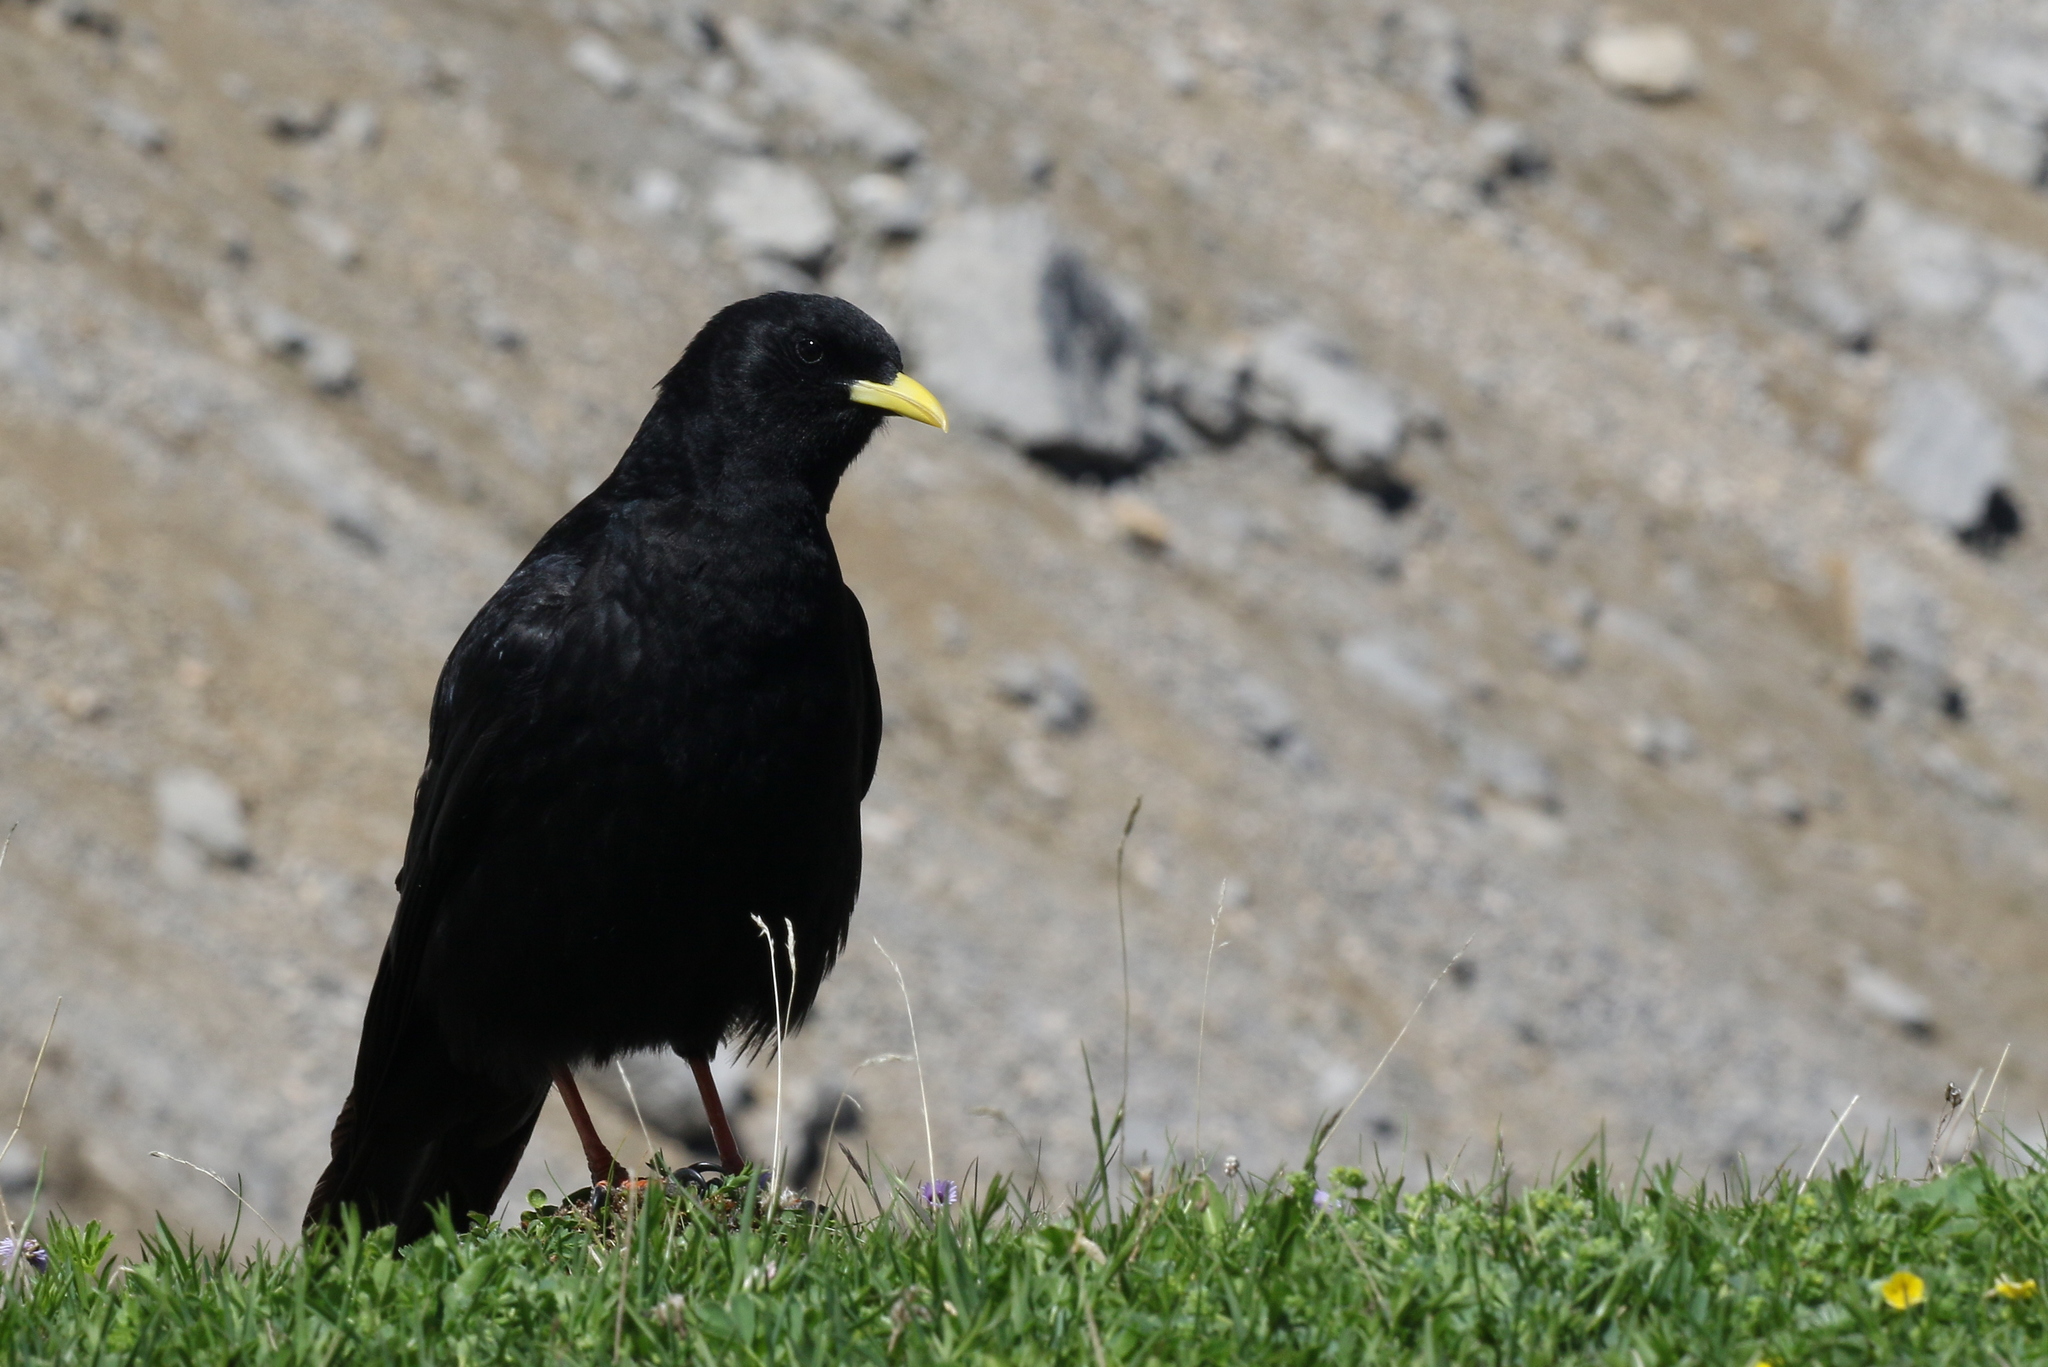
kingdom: Animalia
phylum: Chordata
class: Aves
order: Passeriformes
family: Corvidae
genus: Pyrrhocorax
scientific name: Pyrrhocorax graculus
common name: Alpine chough
